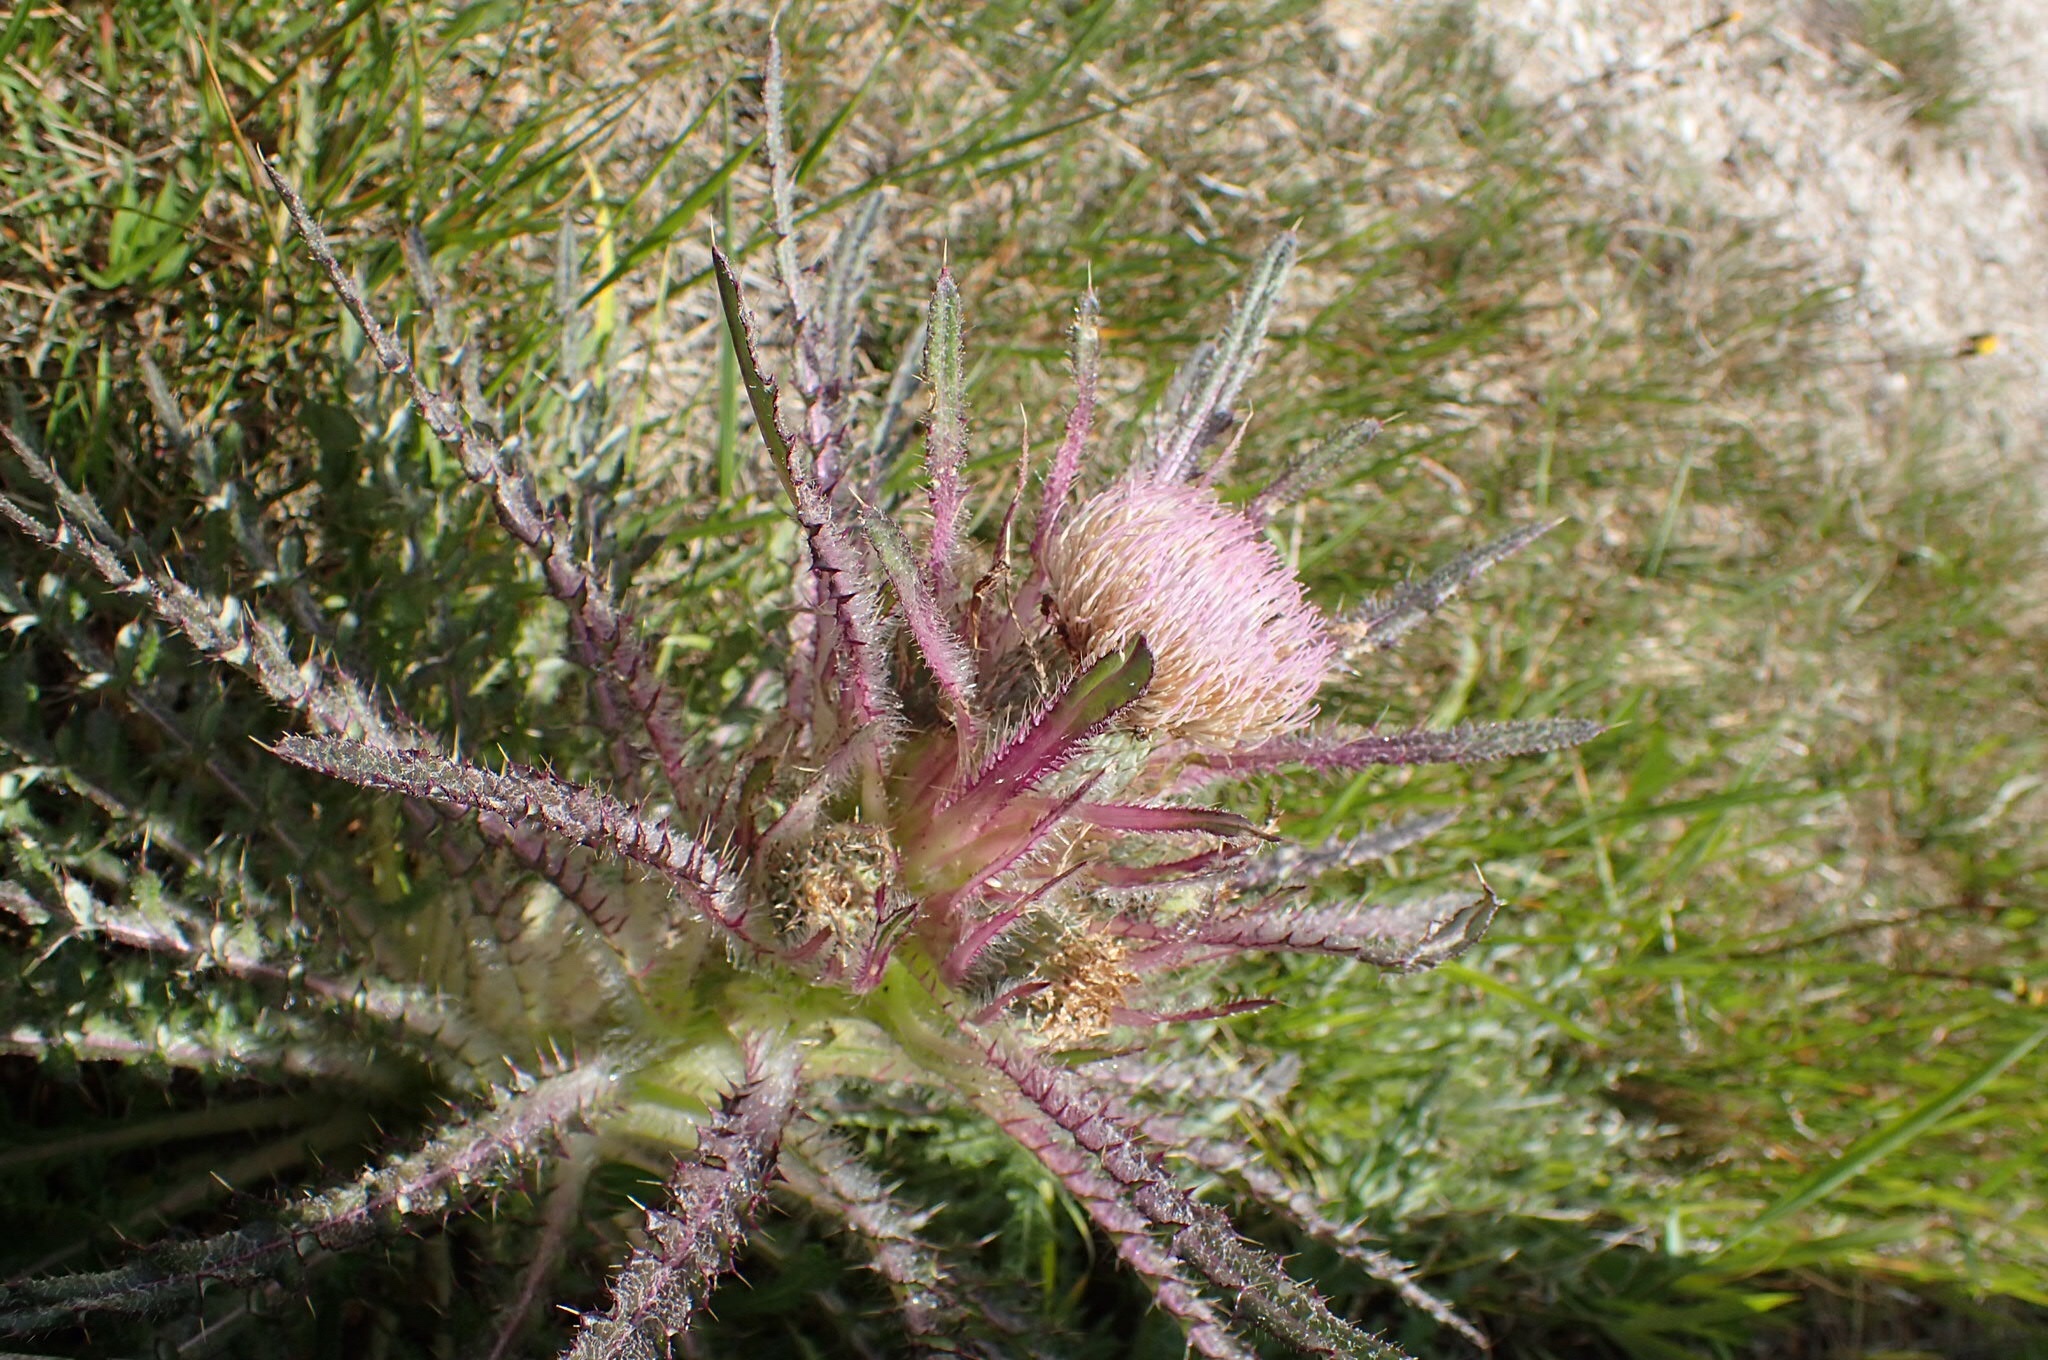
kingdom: Plantae
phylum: Tracheophyta
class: Magnoliopsida
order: Asterales
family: Asteraceae
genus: Cirsium
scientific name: Cirsium scariosum
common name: Meadow thistle
